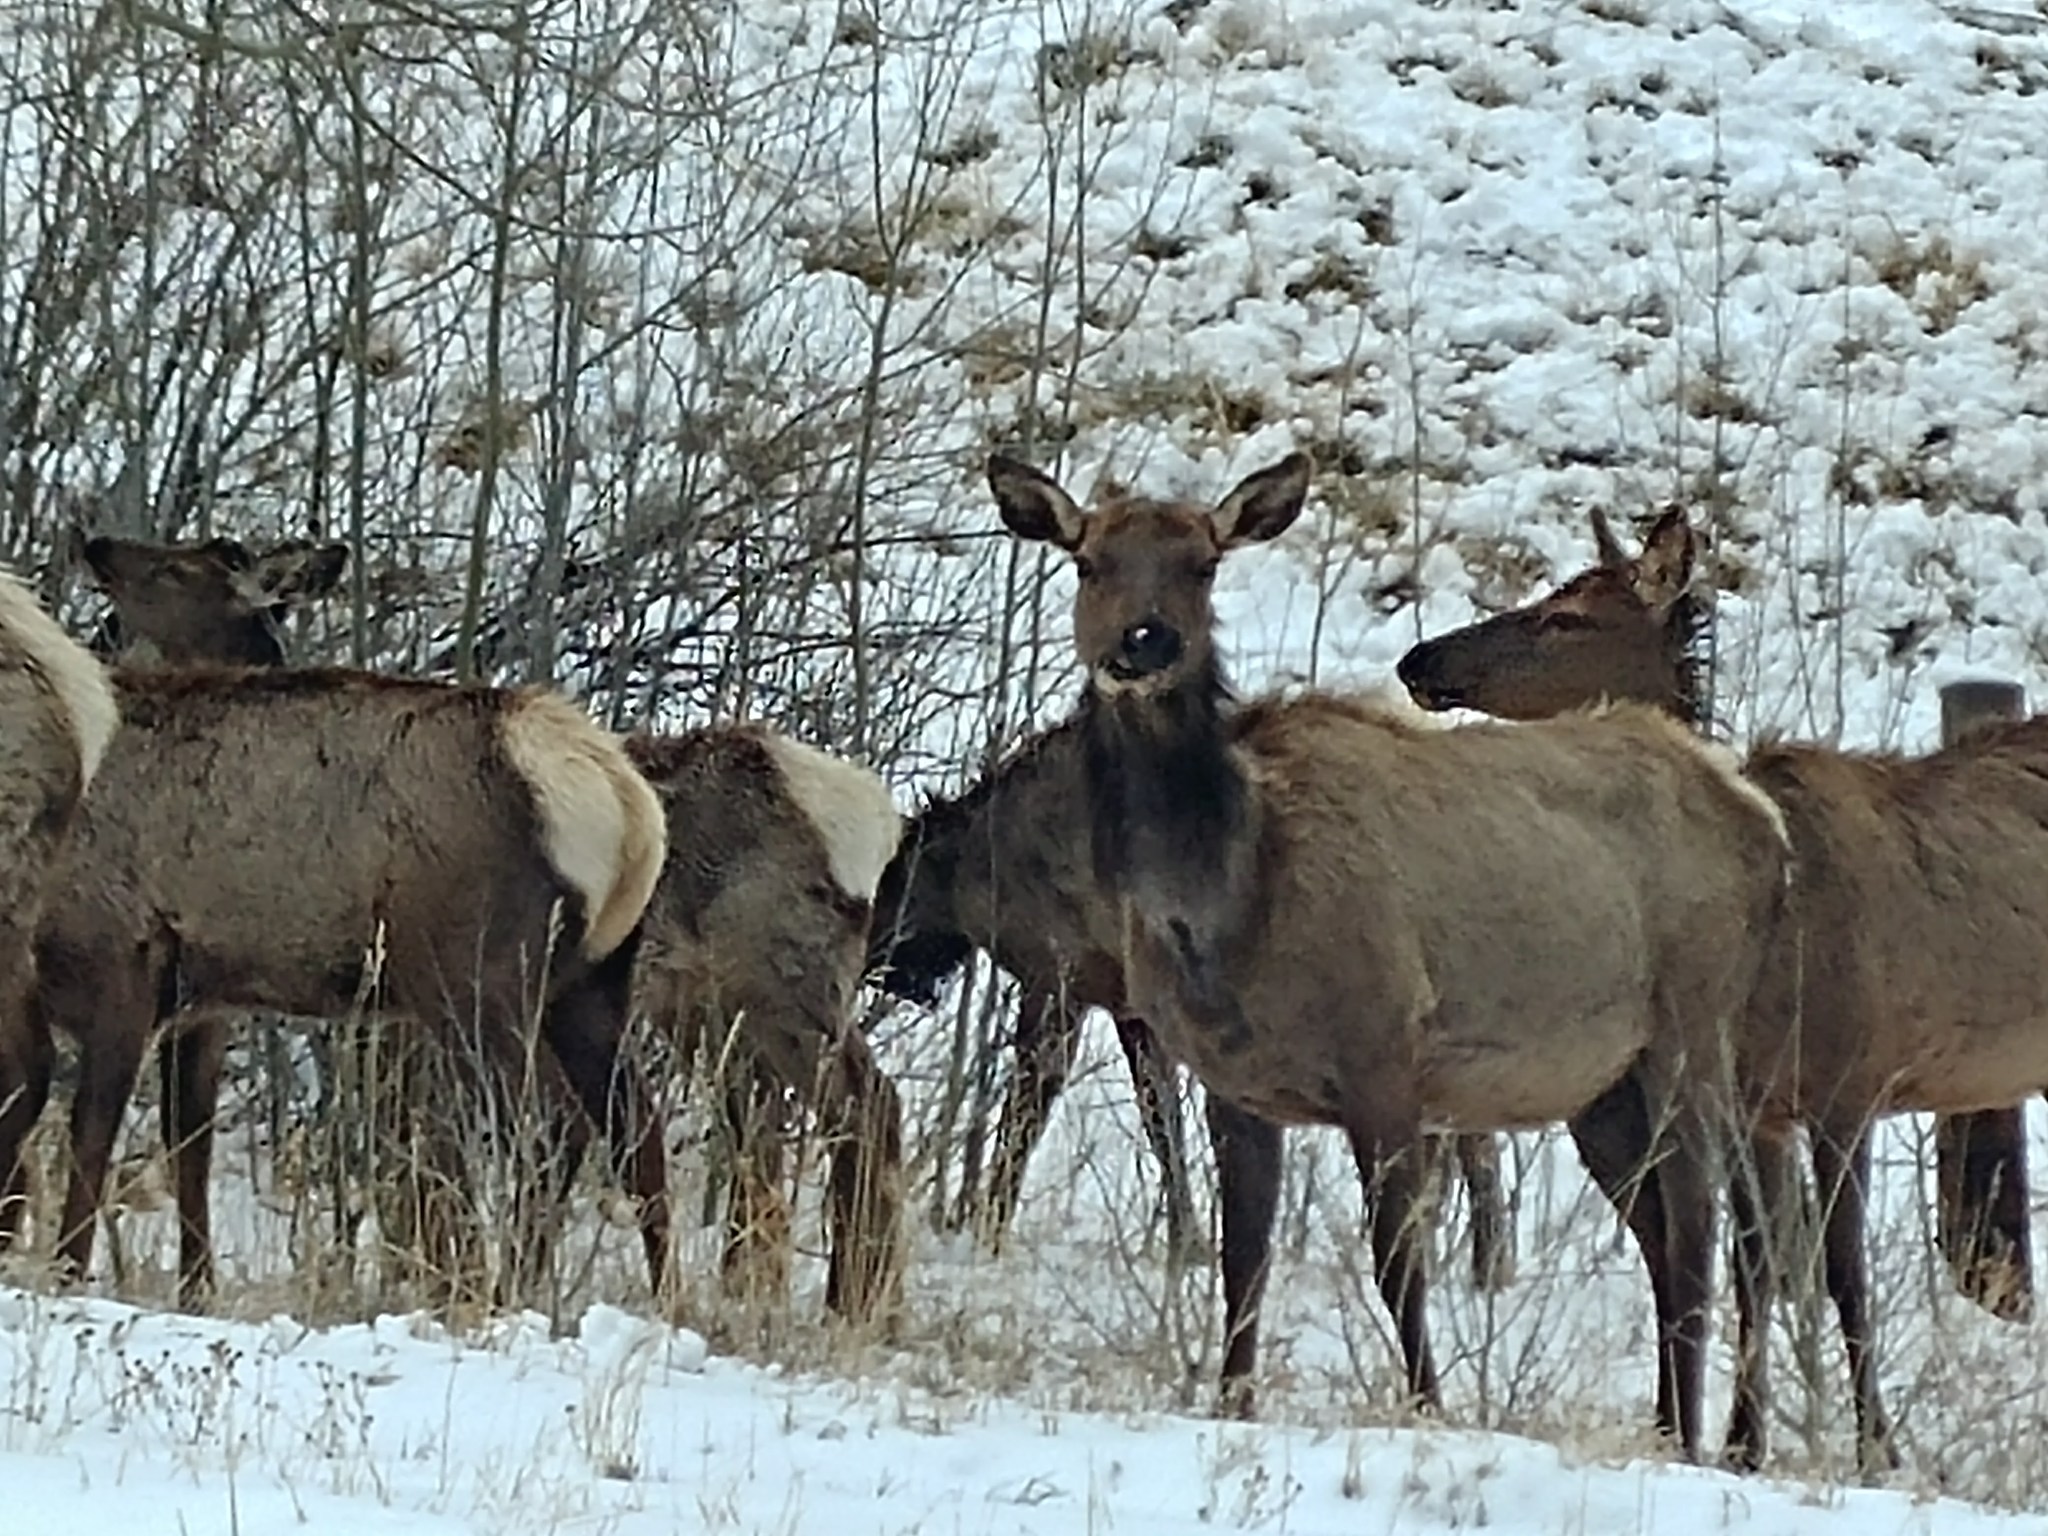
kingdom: Animalia
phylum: Chordata
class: Mammalia
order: Artiodactyla
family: Cervidae
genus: Cervus
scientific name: Cervus elaphus
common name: Red deer
